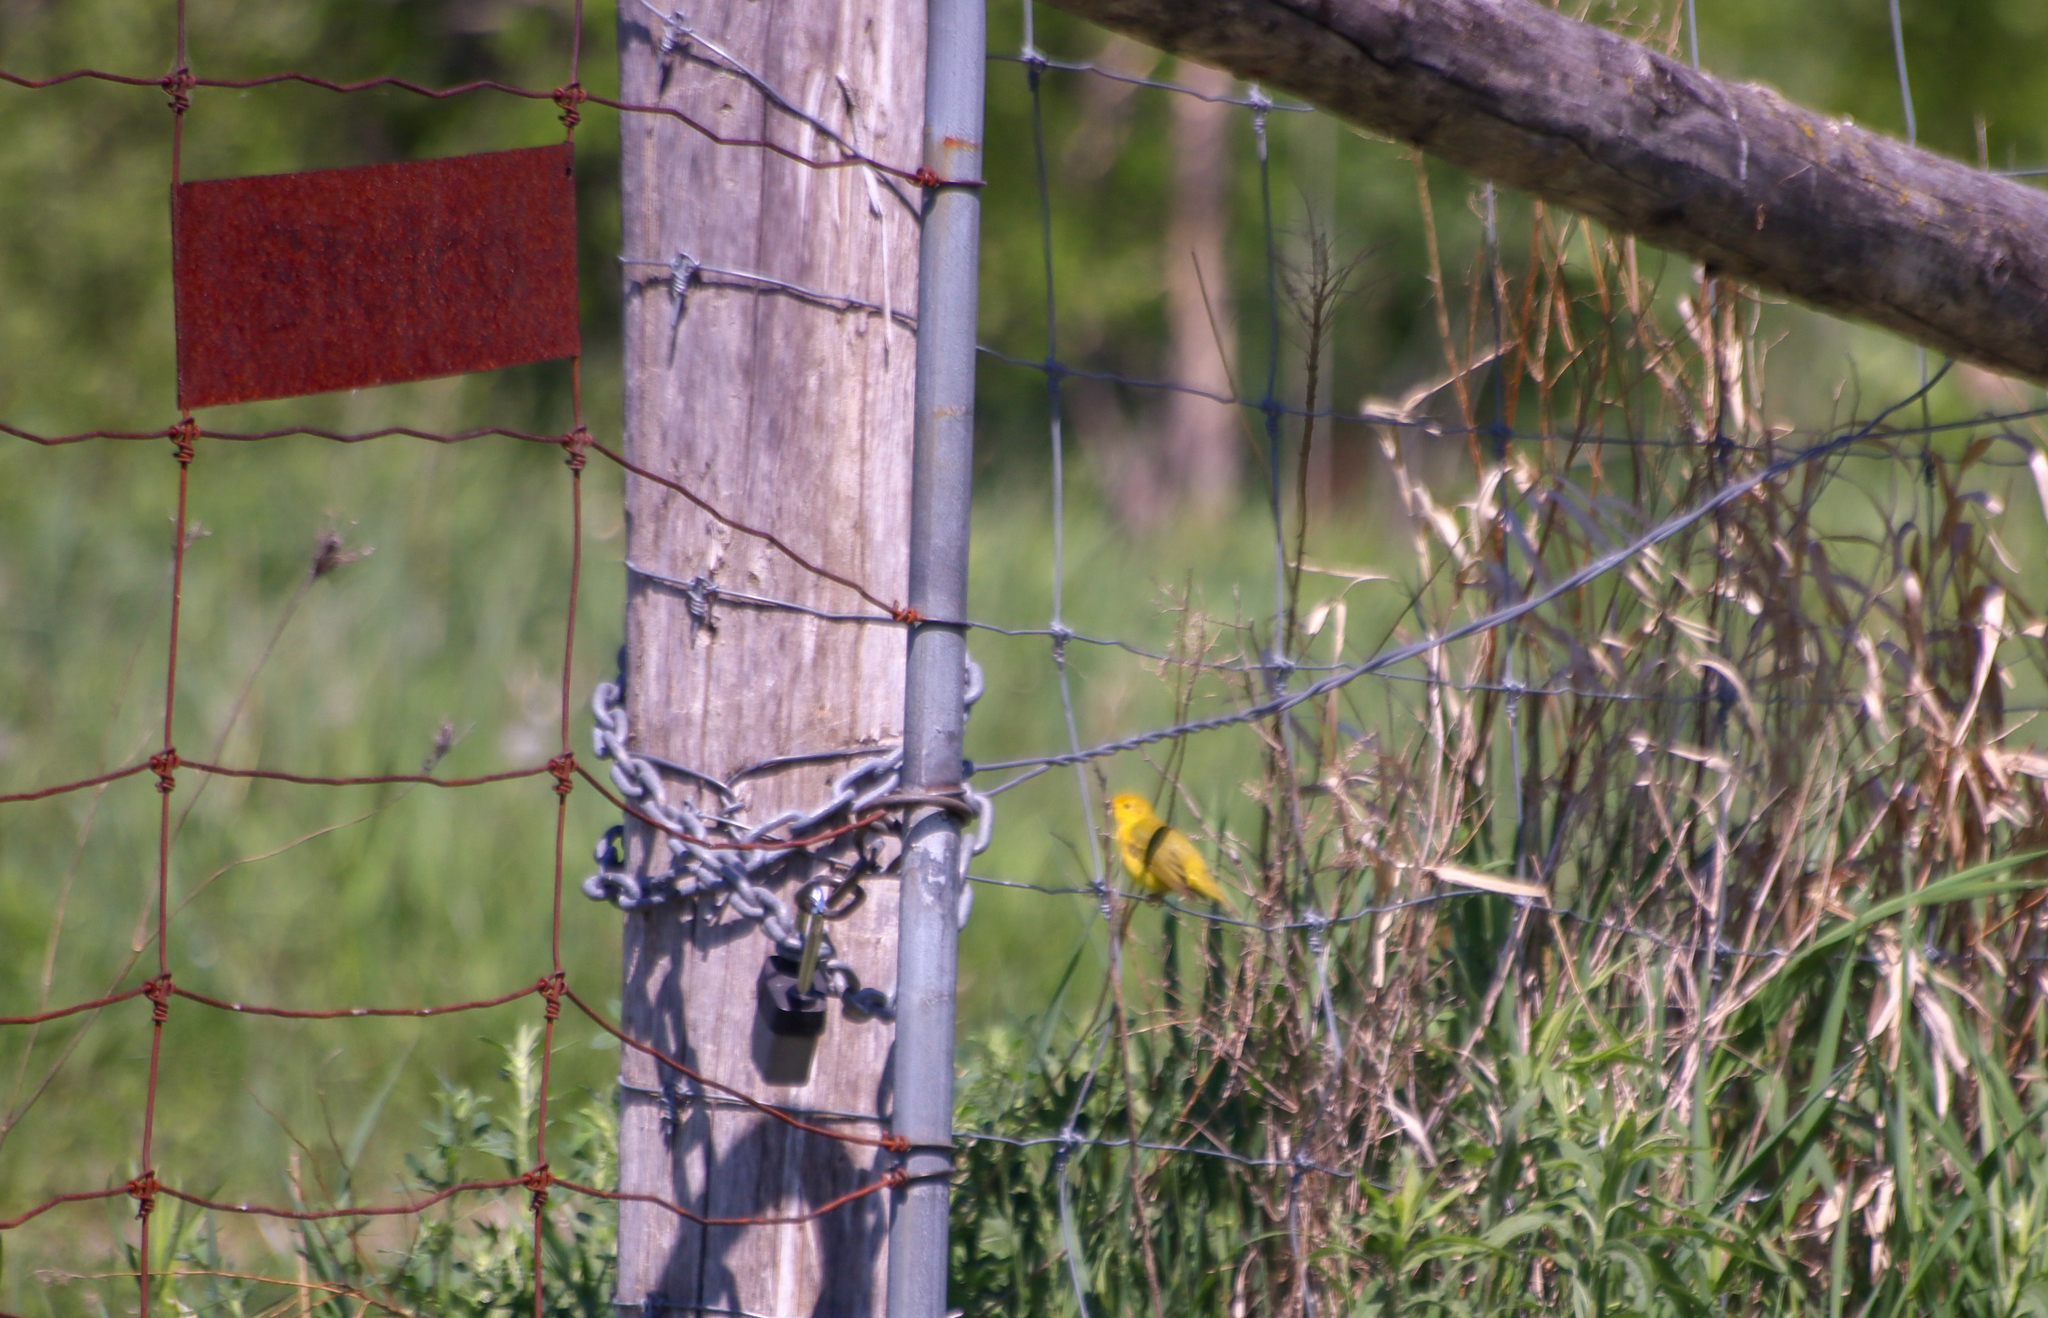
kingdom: Animalia
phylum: Chordata
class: Aves
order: Passeriformes
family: Parulidae
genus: Setophaga
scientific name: Setophaga petechia
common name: Yellow warbler
